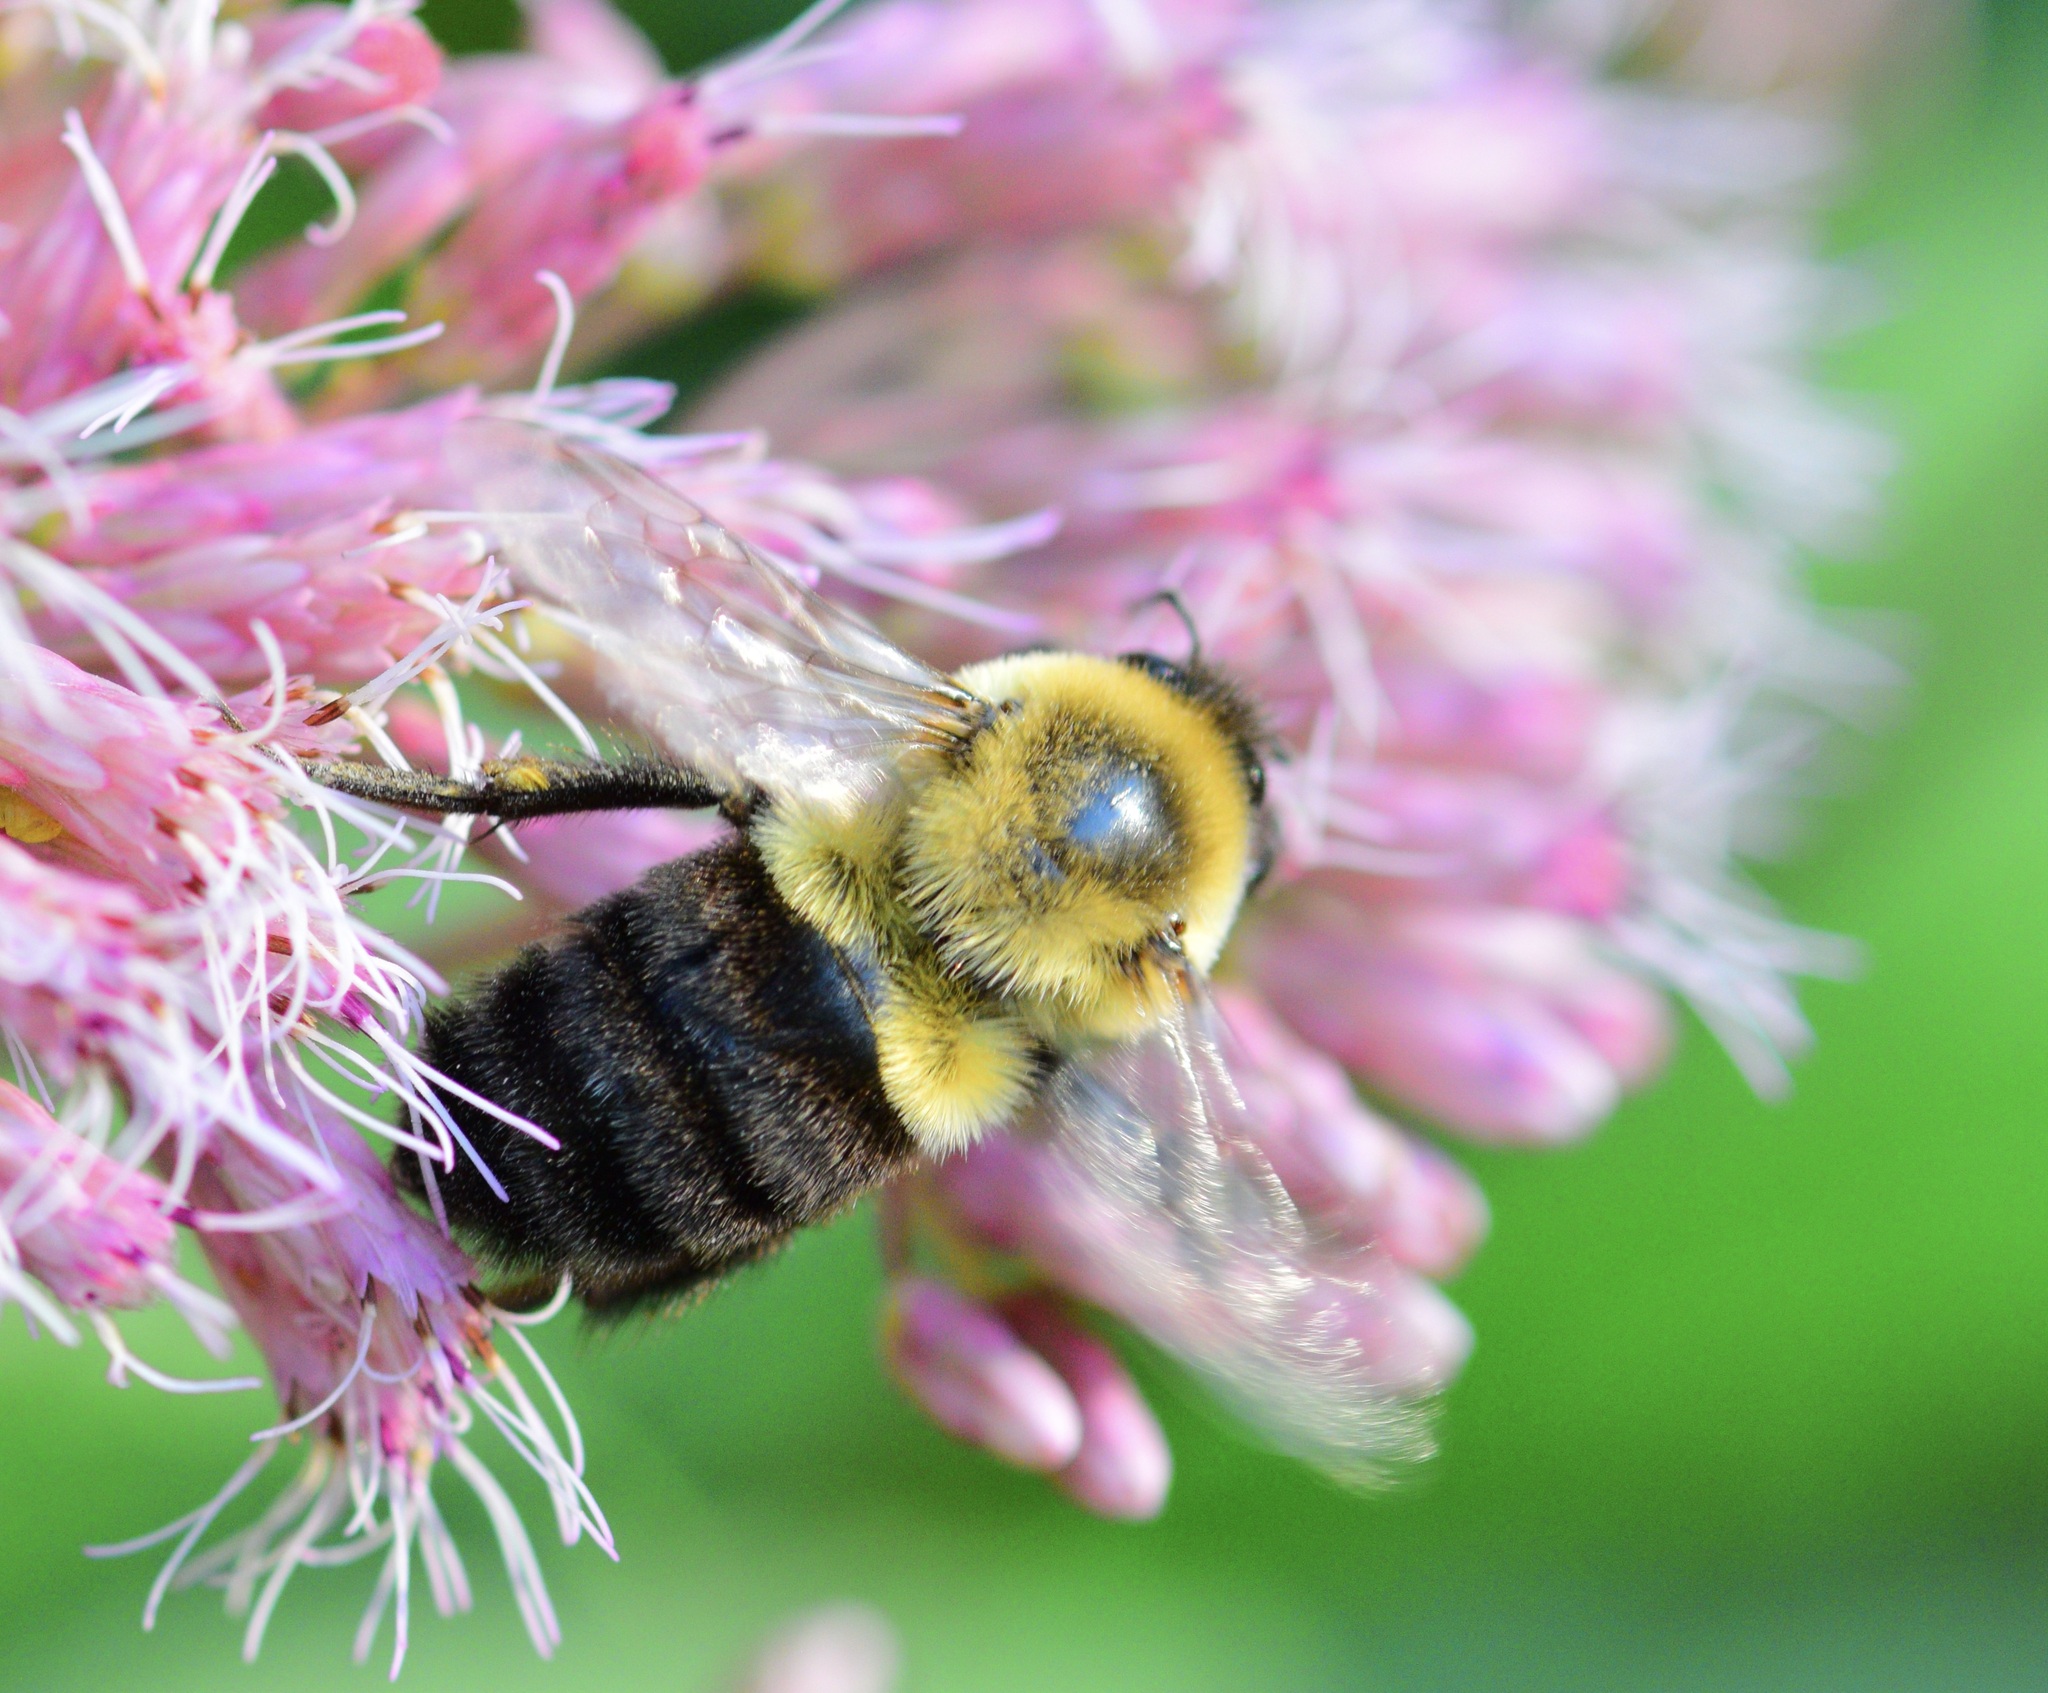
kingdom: Animalia
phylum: Arthropoda
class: Insecta
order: Hymenoptera
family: Apidae
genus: Bombus
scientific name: Bombus impatiens
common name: Common eastern bumble bee
